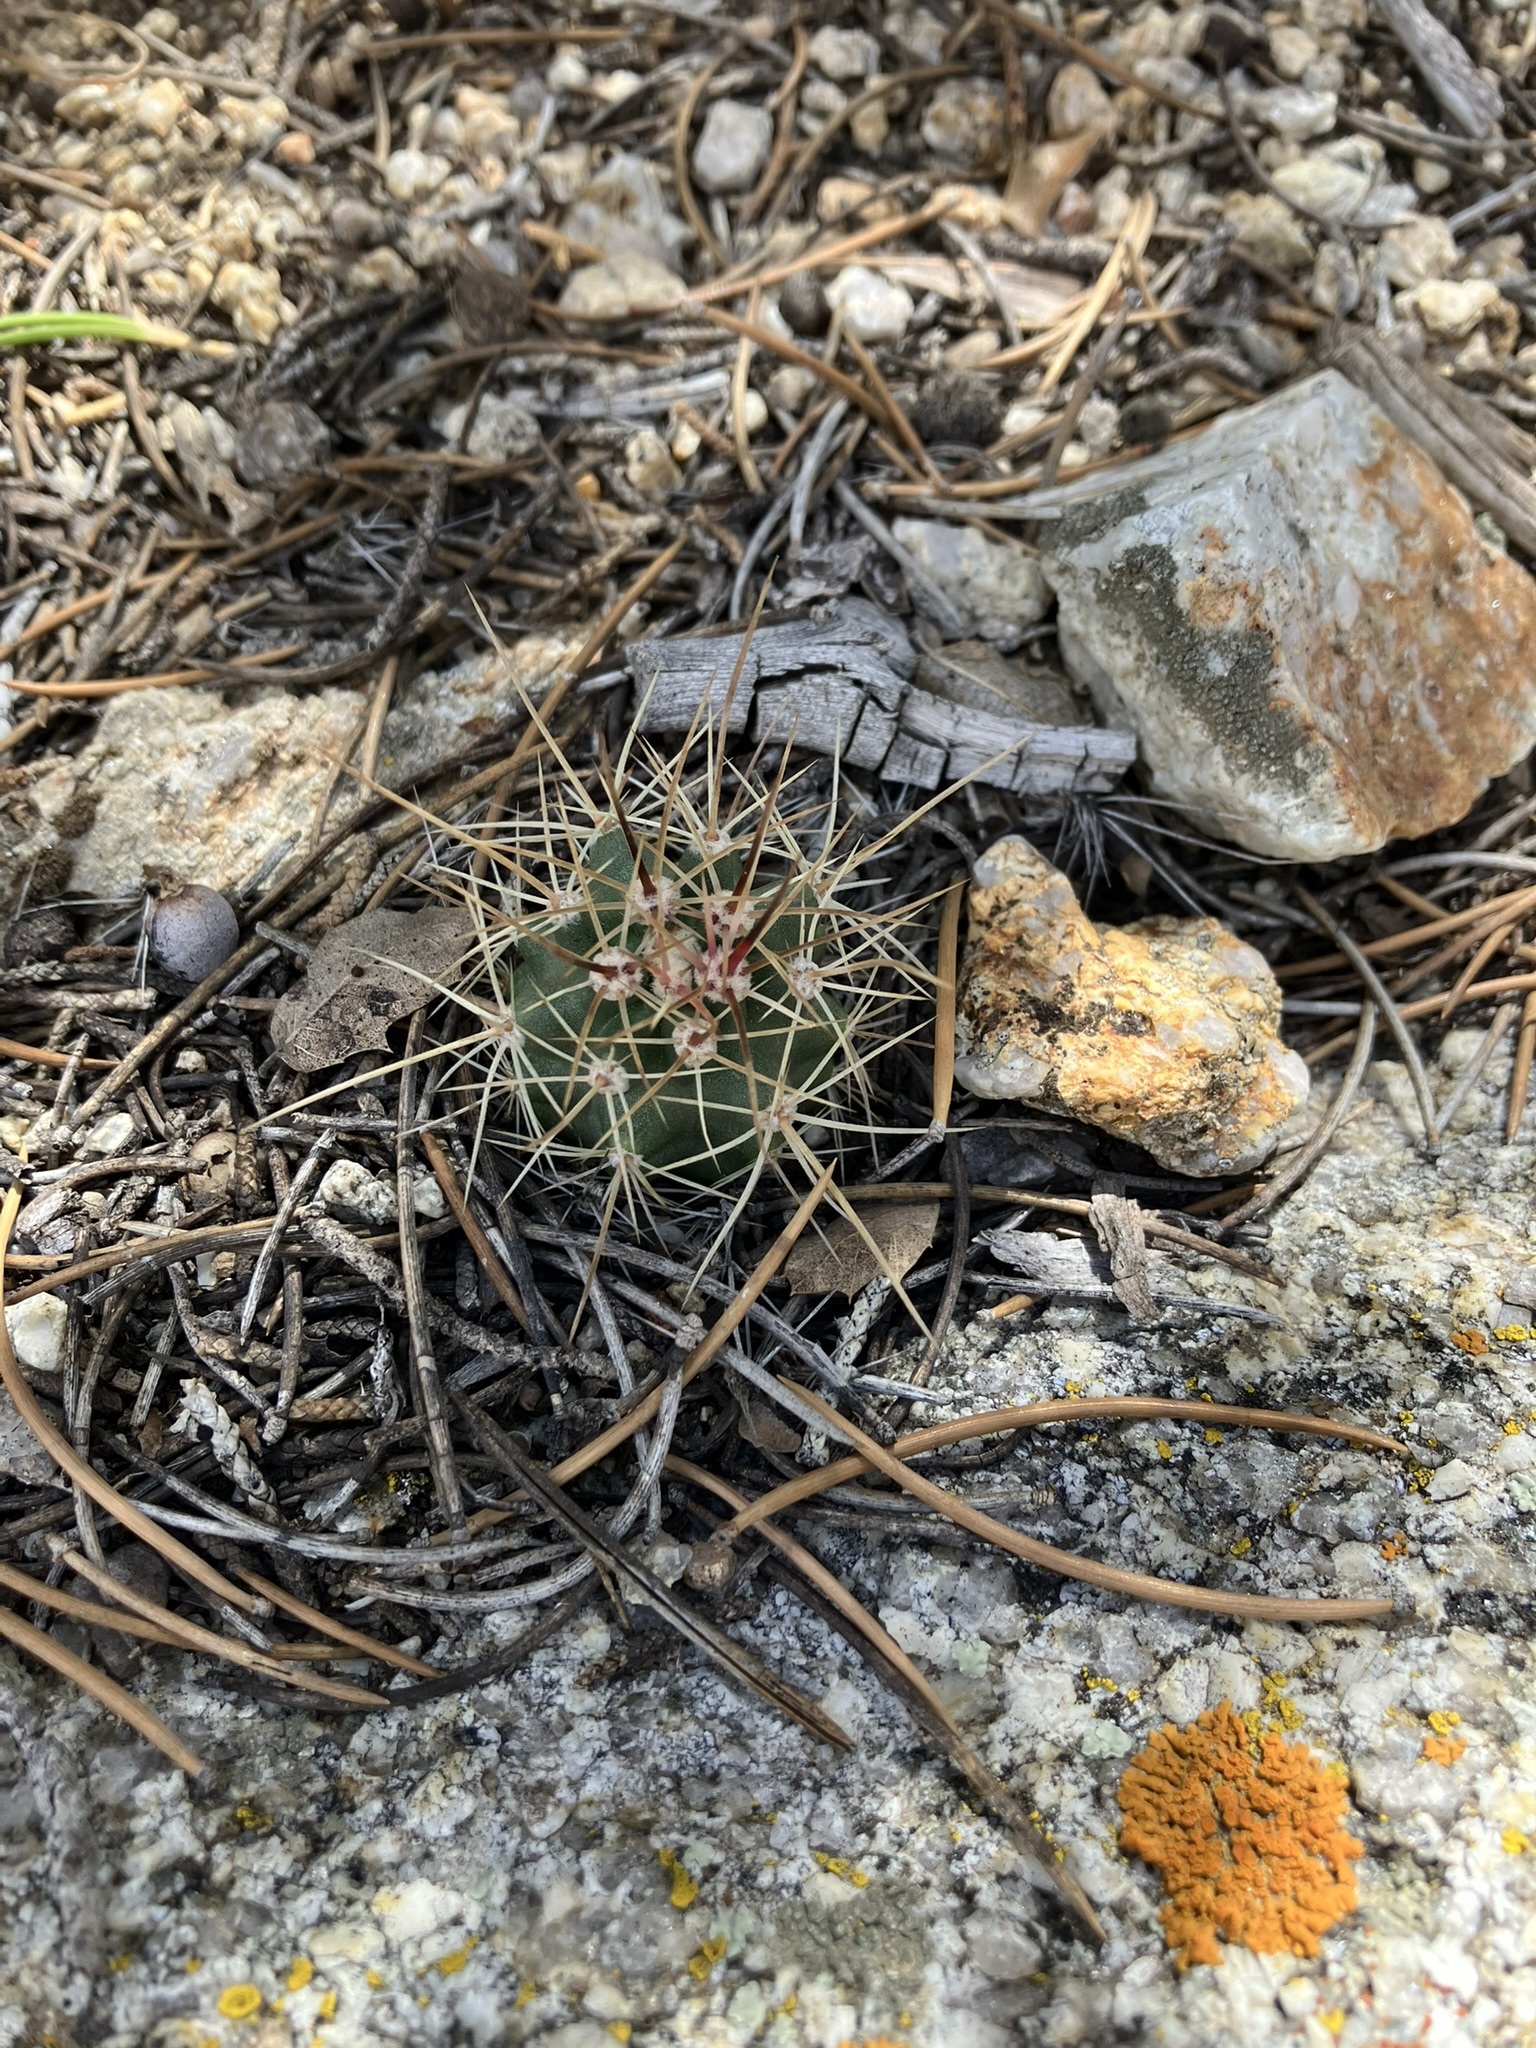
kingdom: Plantae
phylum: Tracheophyta
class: Magnoliopsida
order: Caryophyllales
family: Cactaceae
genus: Echinocereus
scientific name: Echinocereus triglochidiatus
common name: Claretcup hedgehog
